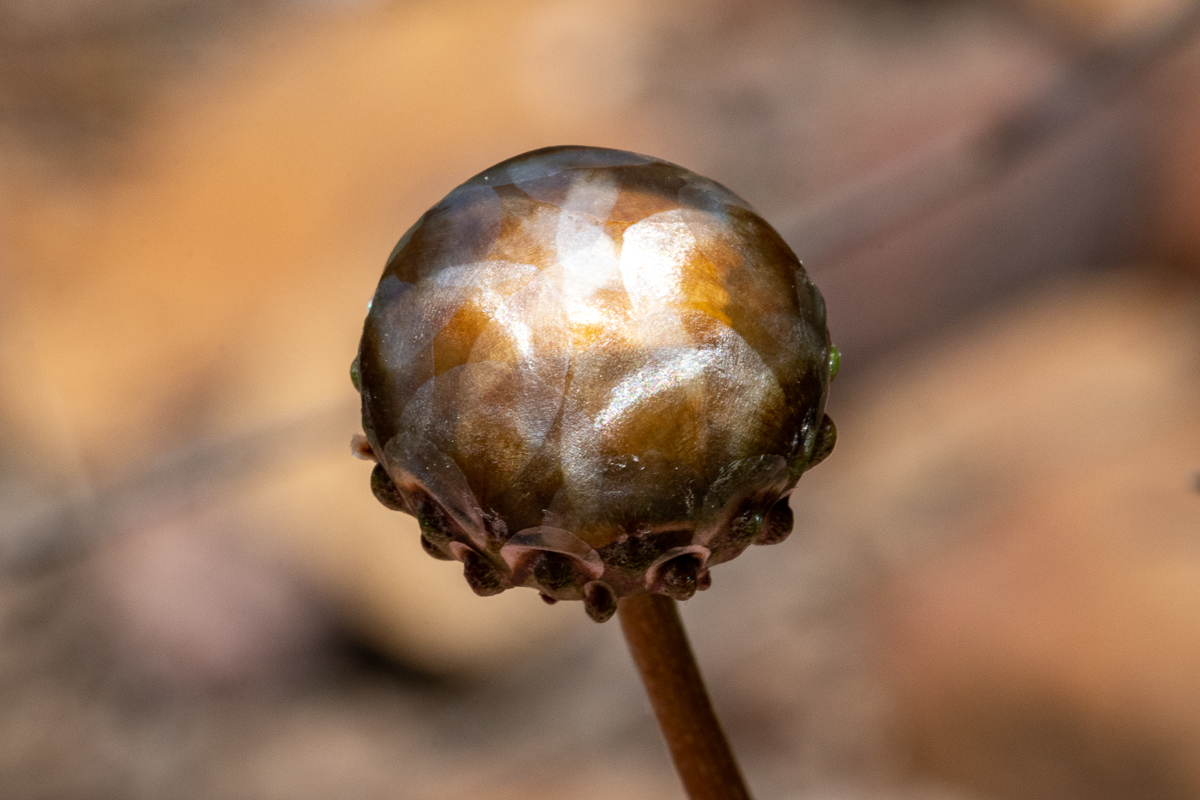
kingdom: Plantae
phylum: Tracheophyta
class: Magnoliopsida
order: Asterales
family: Asteraceae
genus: Ursinia
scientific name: Ursinia paleacea
